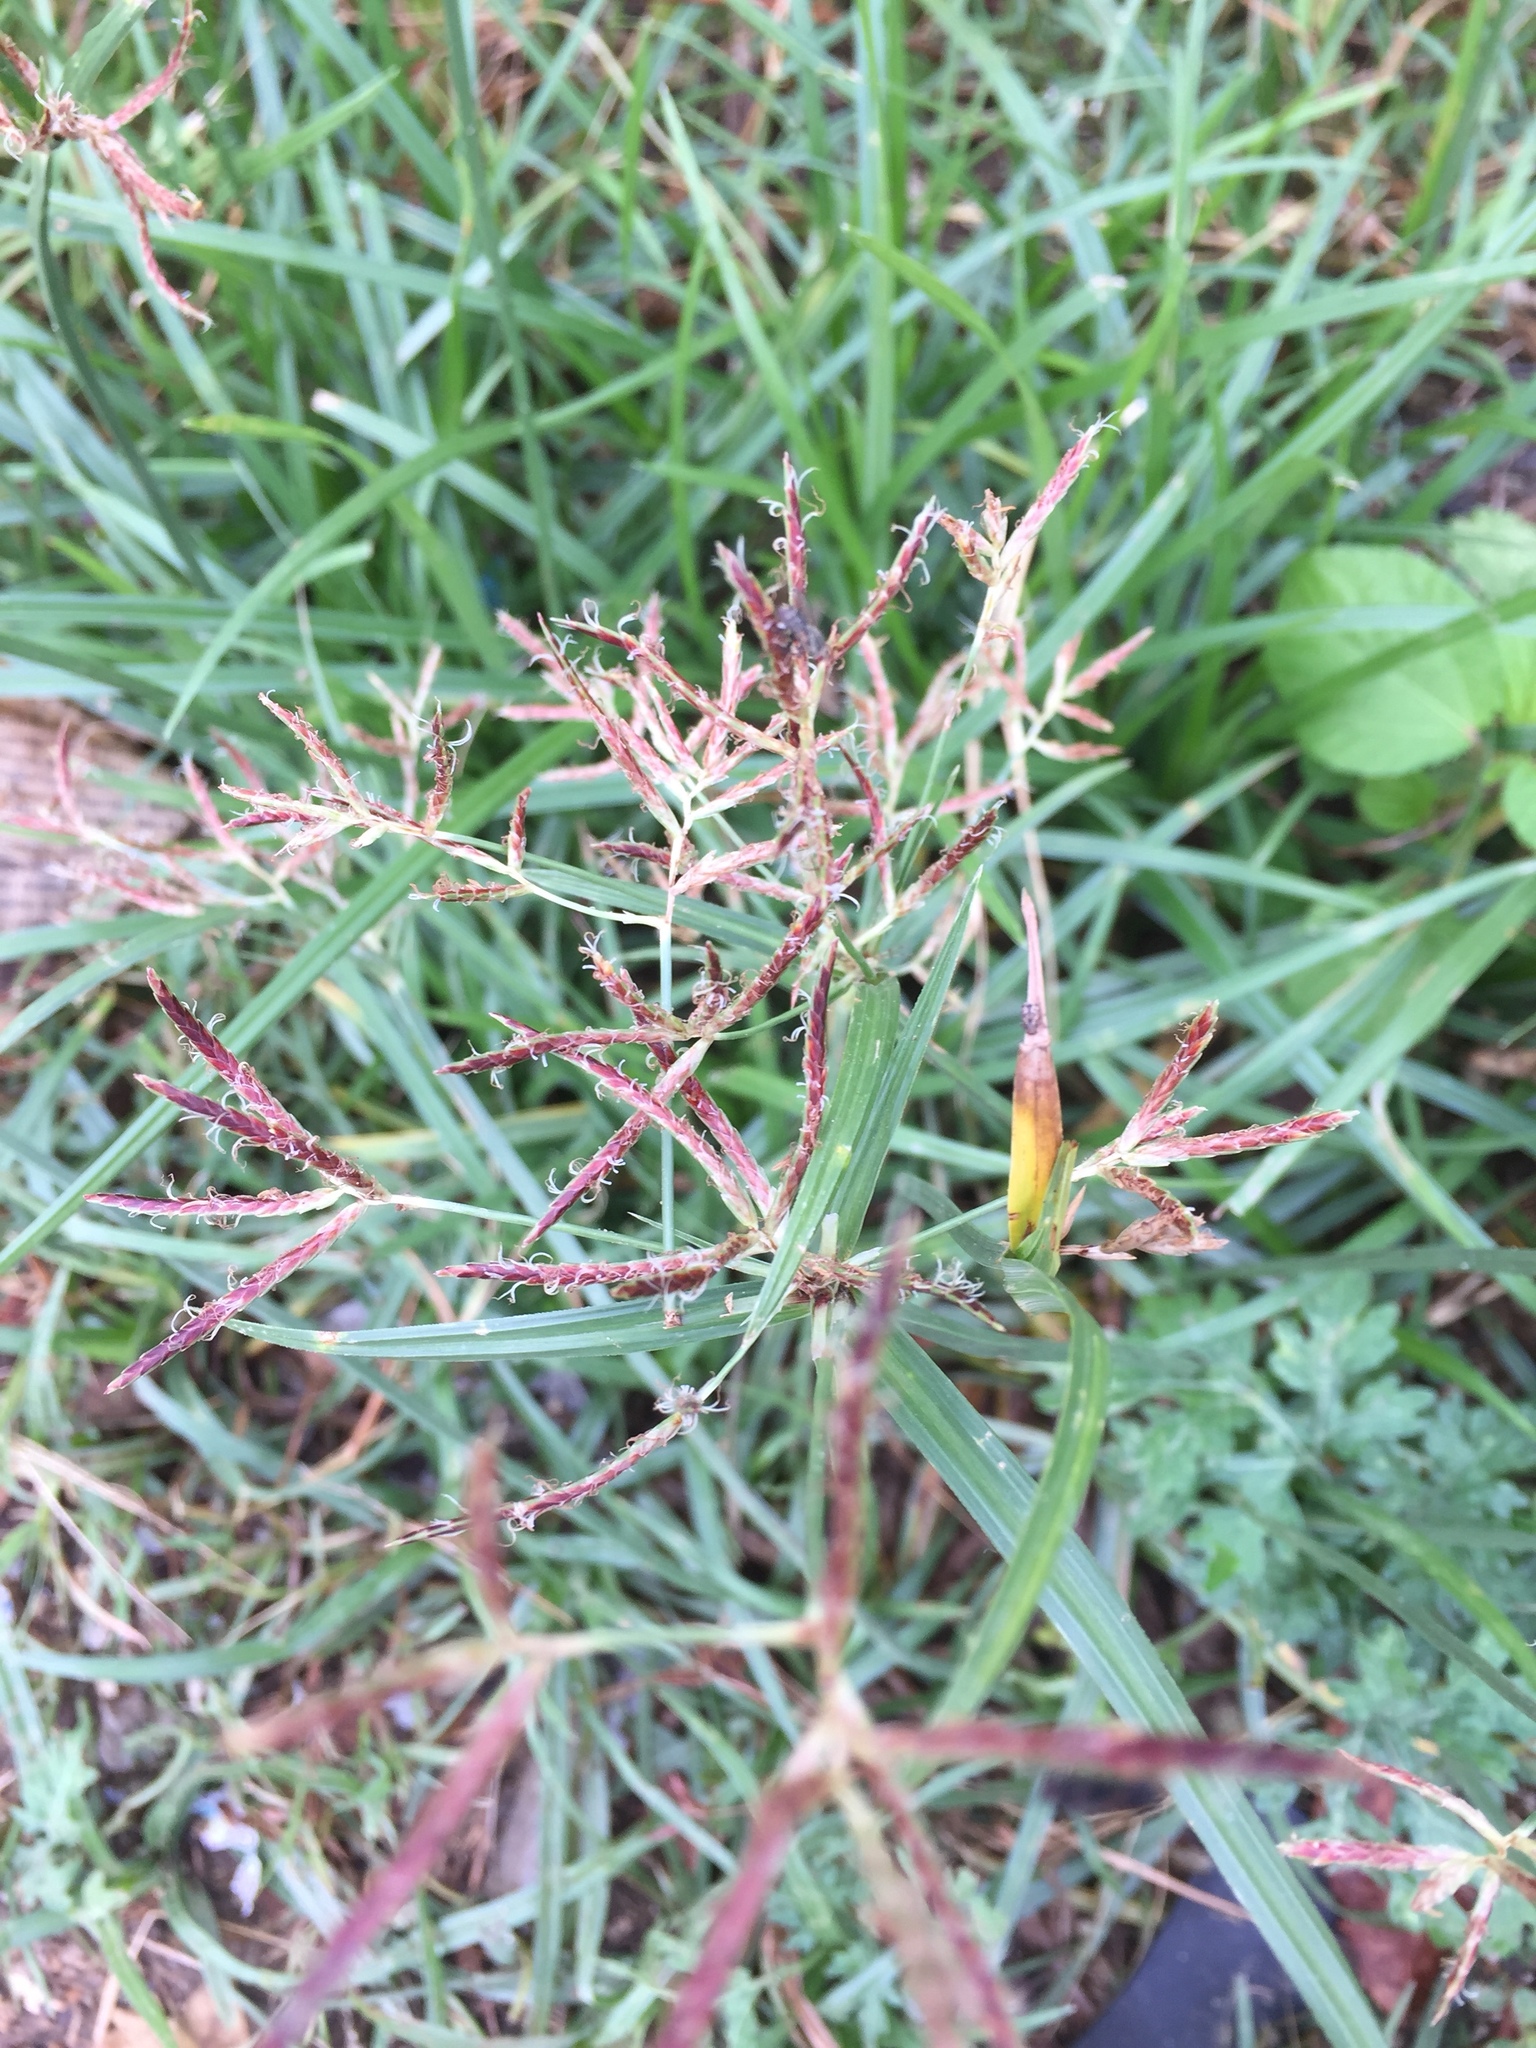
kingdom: Plantae
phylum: Tracheophyta
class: Liliopsida
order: Poales
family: Cyperaceae
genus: Cyperus
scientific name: Cyperus rotundus
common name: Nutgrass
